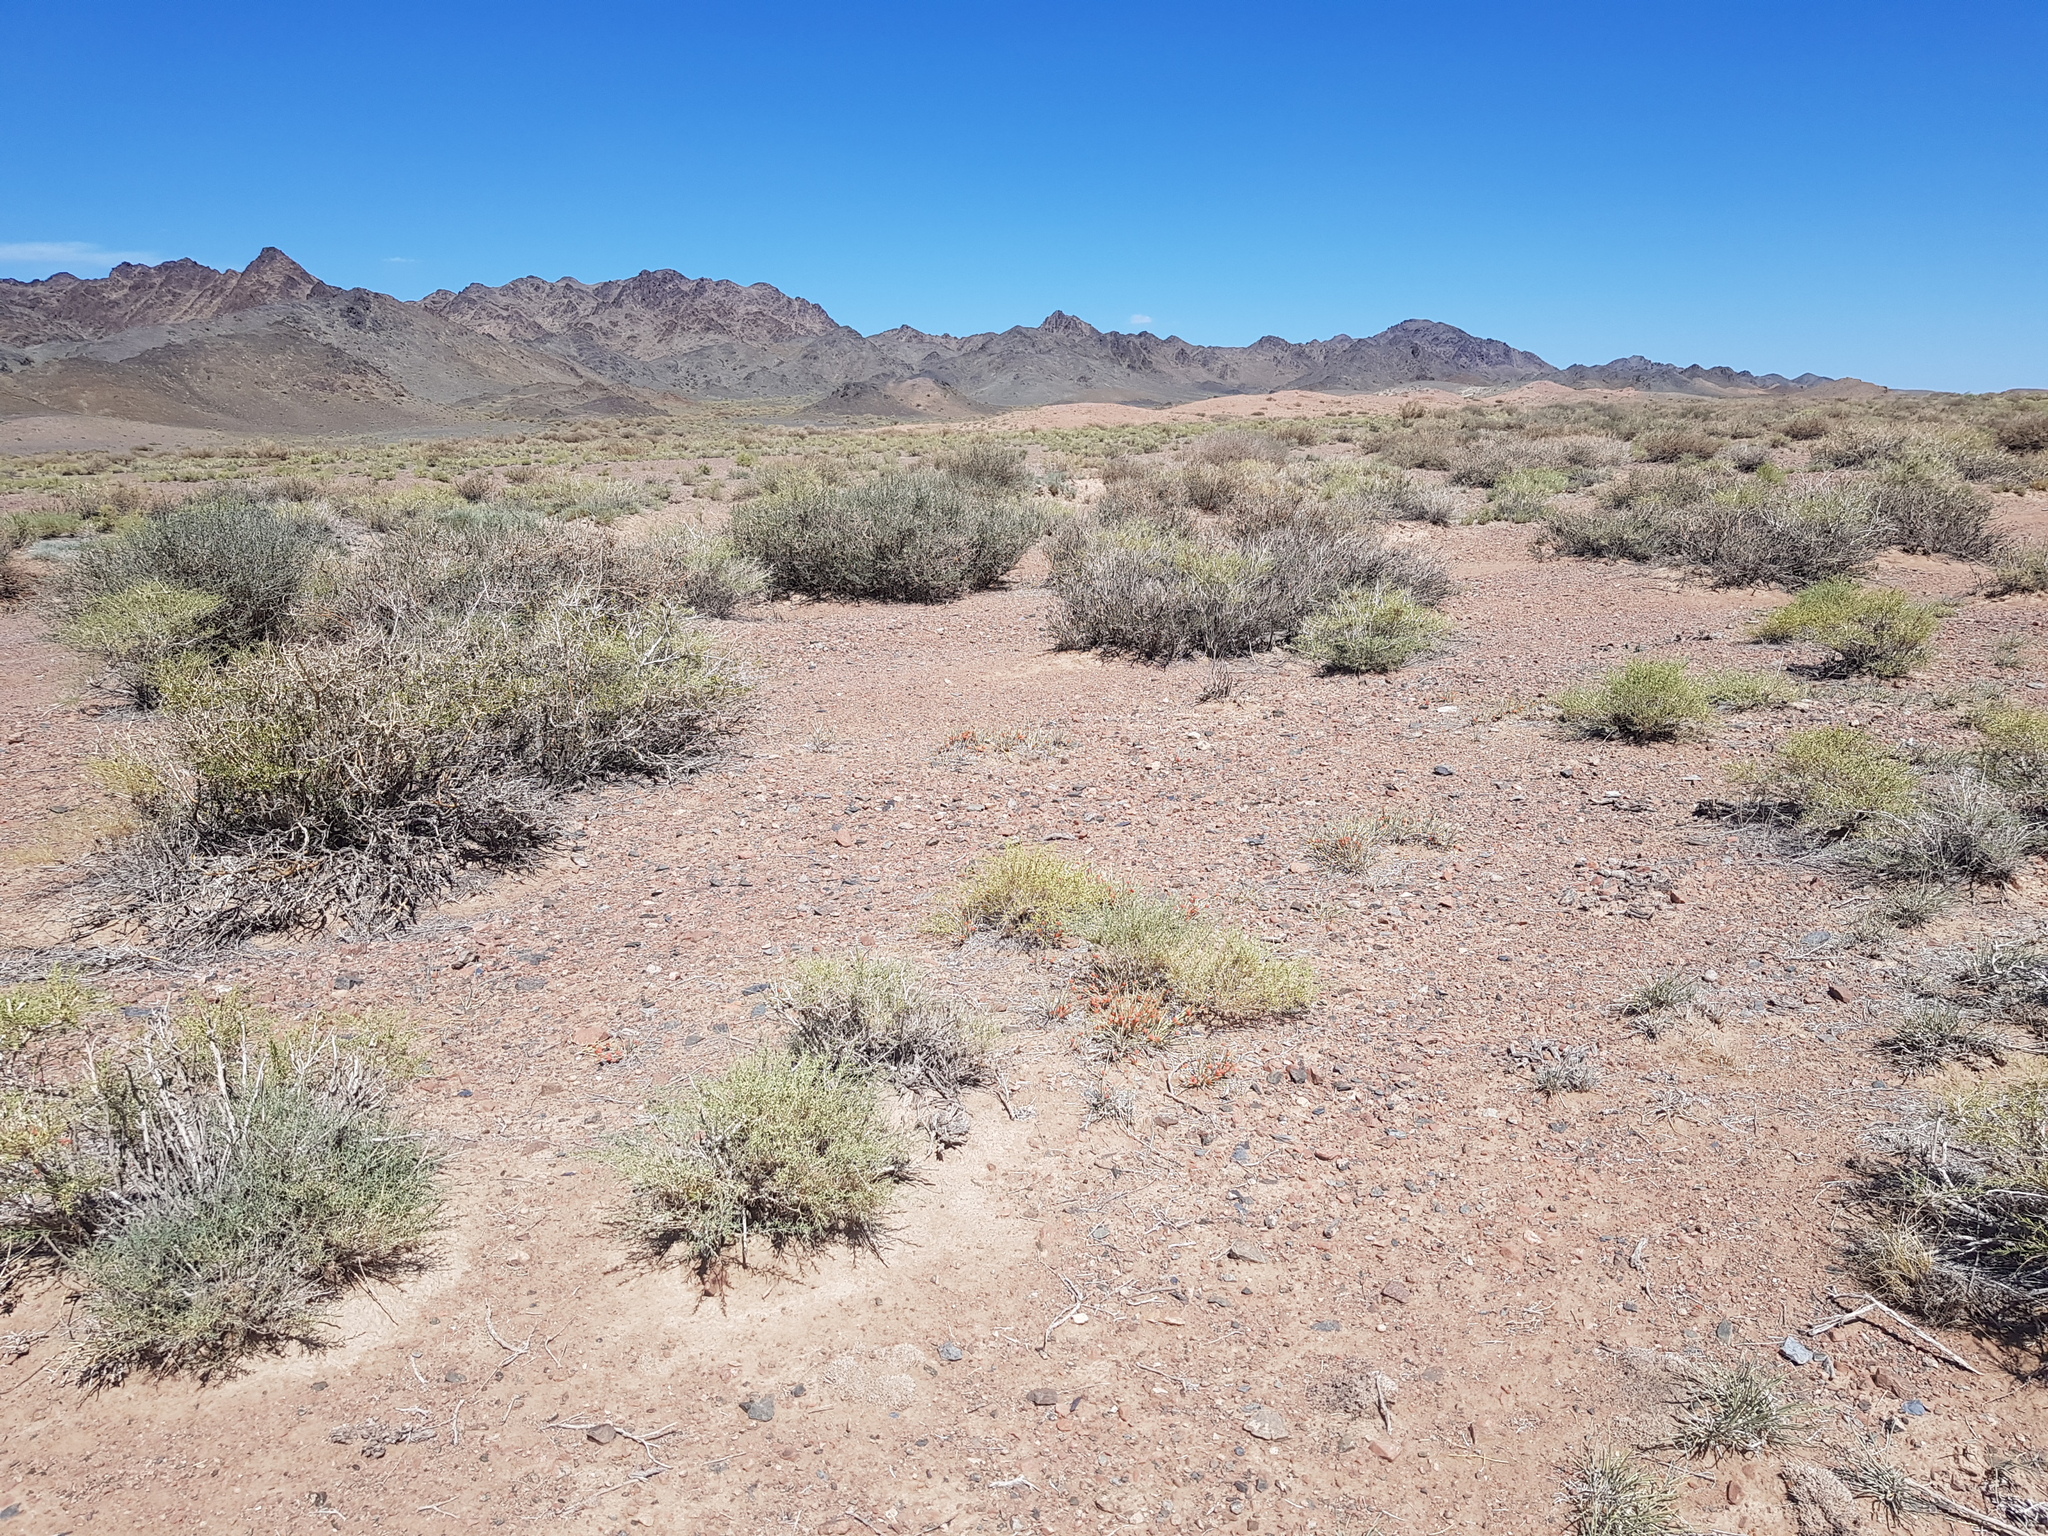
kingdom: Plantae
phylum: Tracheophyta
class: Magnoliopsida
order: Zygophyllales
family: Zygophyllaceae
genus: Zygophyllum
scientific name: Zygophyllum xanthoxylum
